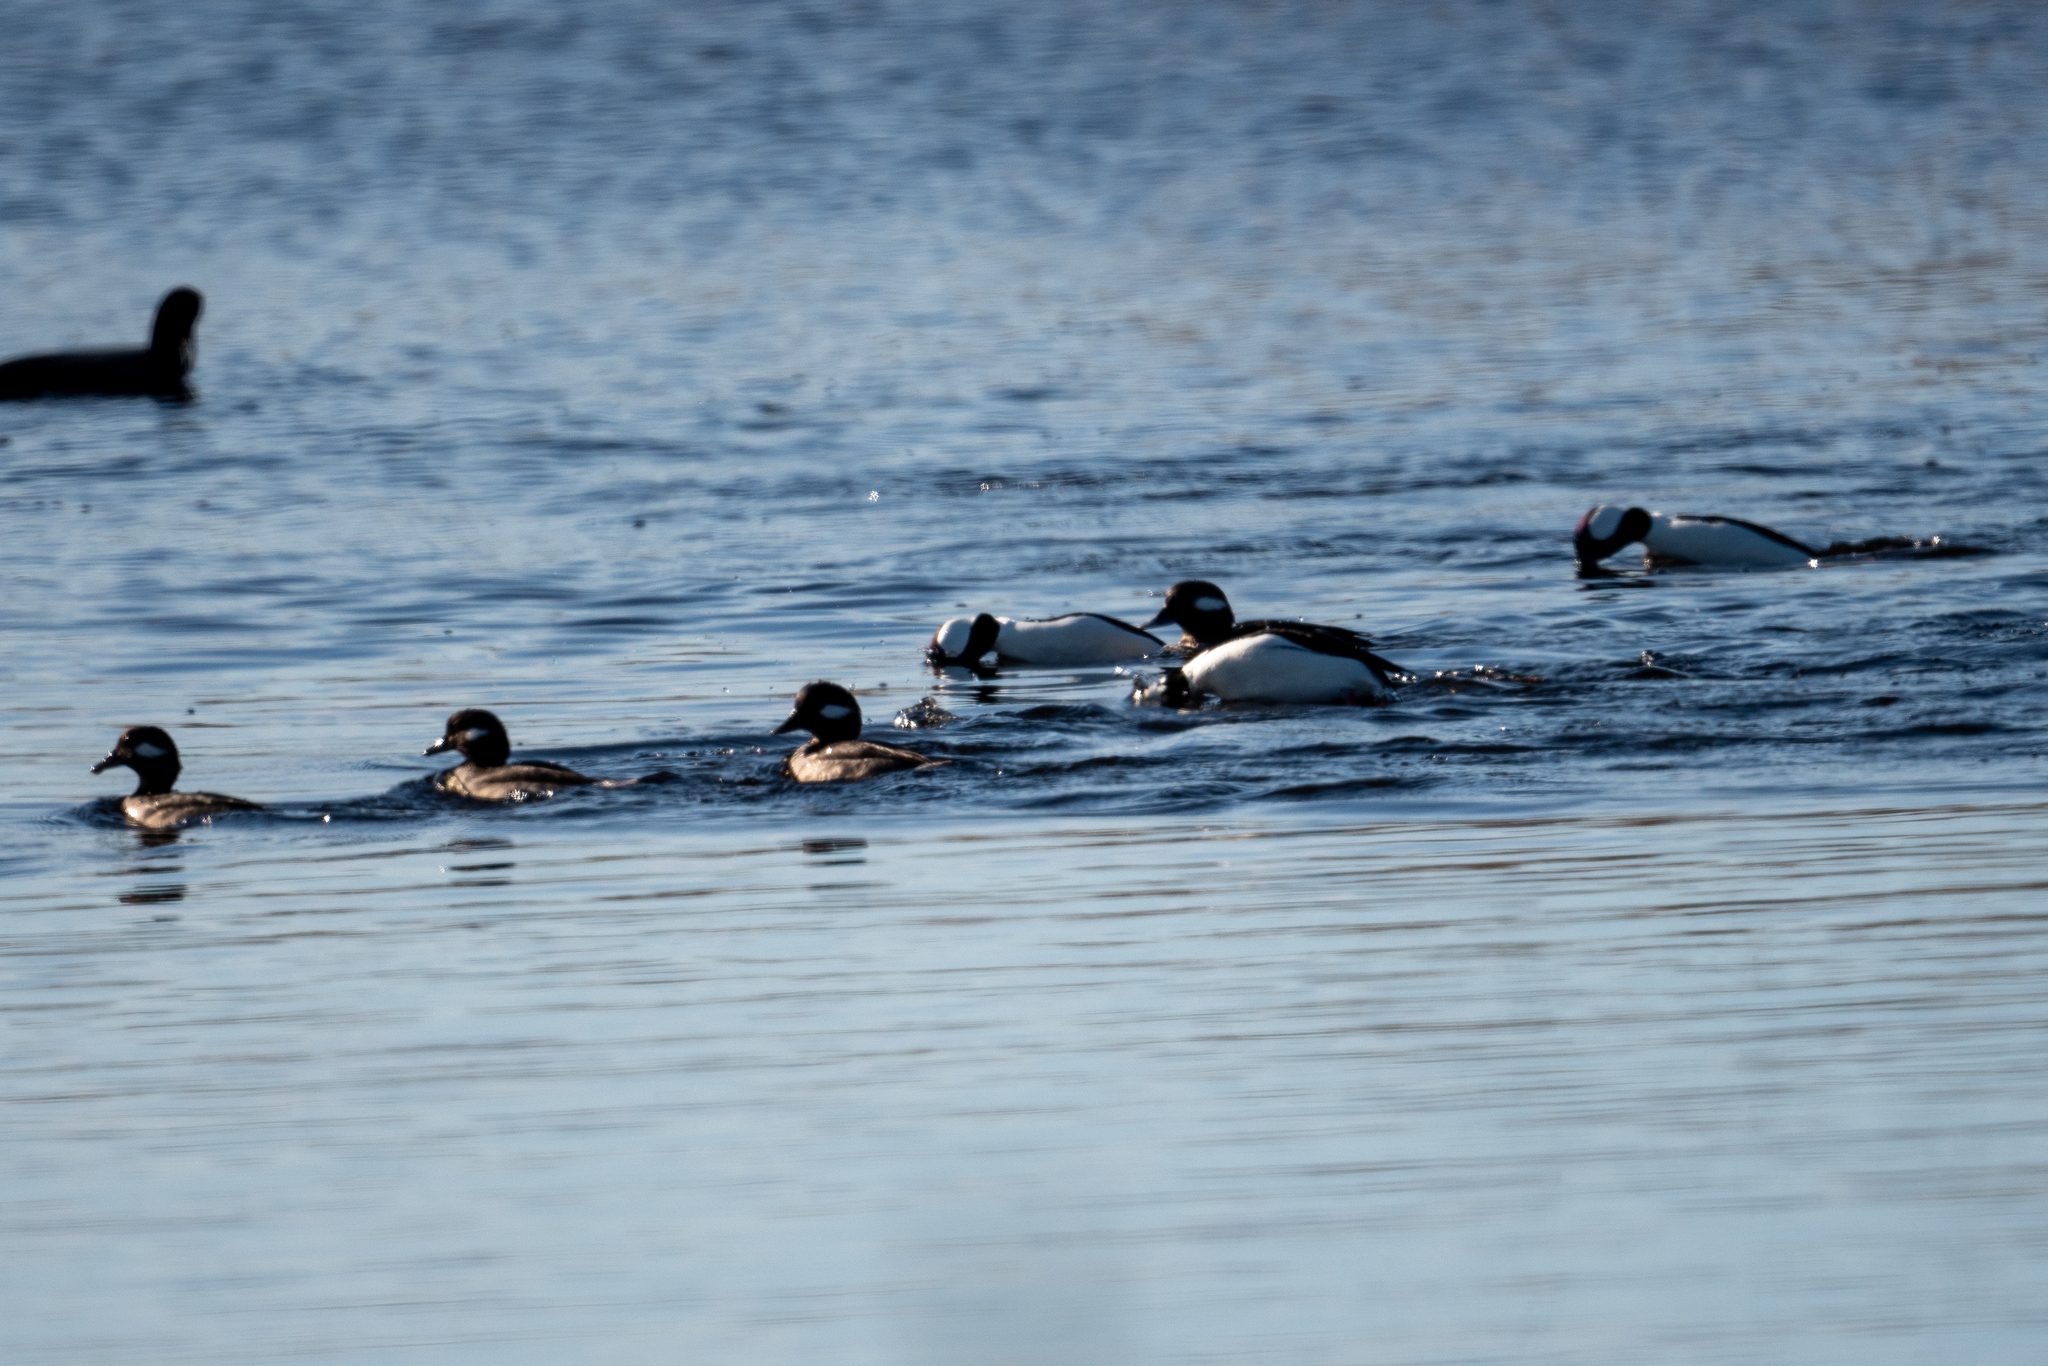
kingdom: Animalia
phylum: Chordata
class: Aves
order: Anseriformes
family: Anatidae
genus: Bucephala
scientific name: Bucephala albeola
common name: Bufflehead
